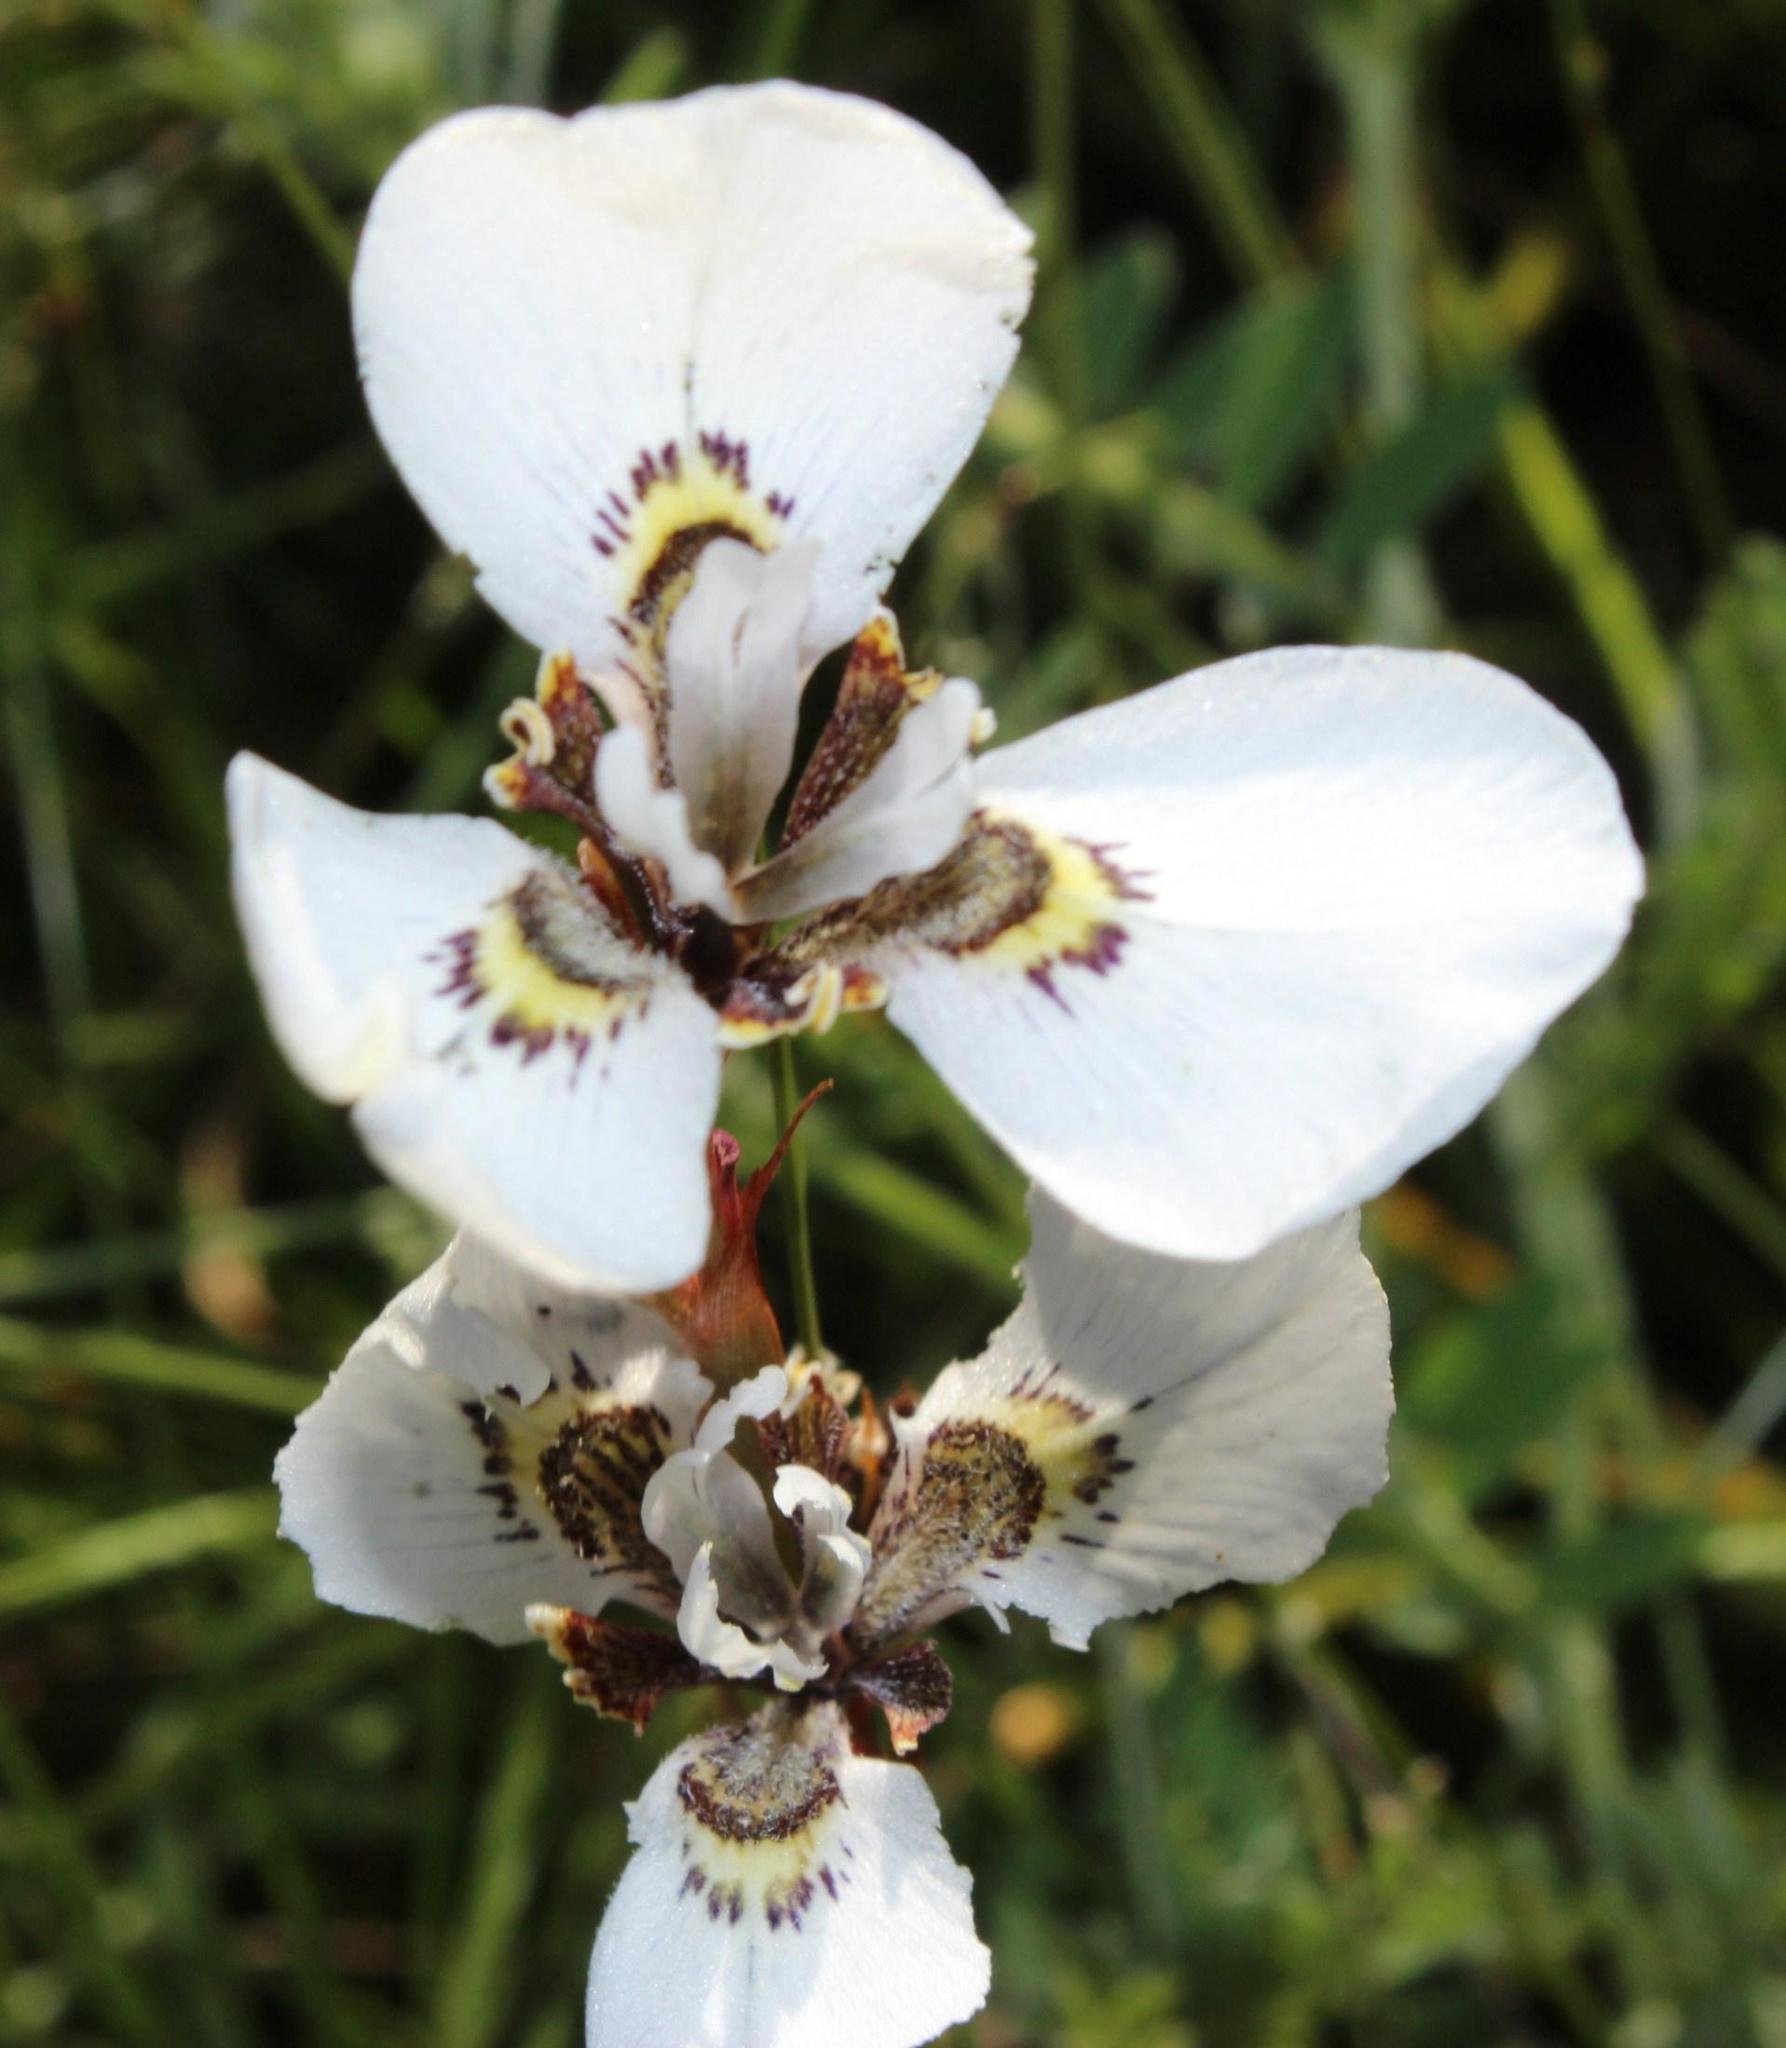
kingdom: Plantae
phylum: Tracheophyta
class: Liliopsida
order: Asparagales
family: Iridaceae
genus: Moraea
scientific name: Moraea tricuspidata
